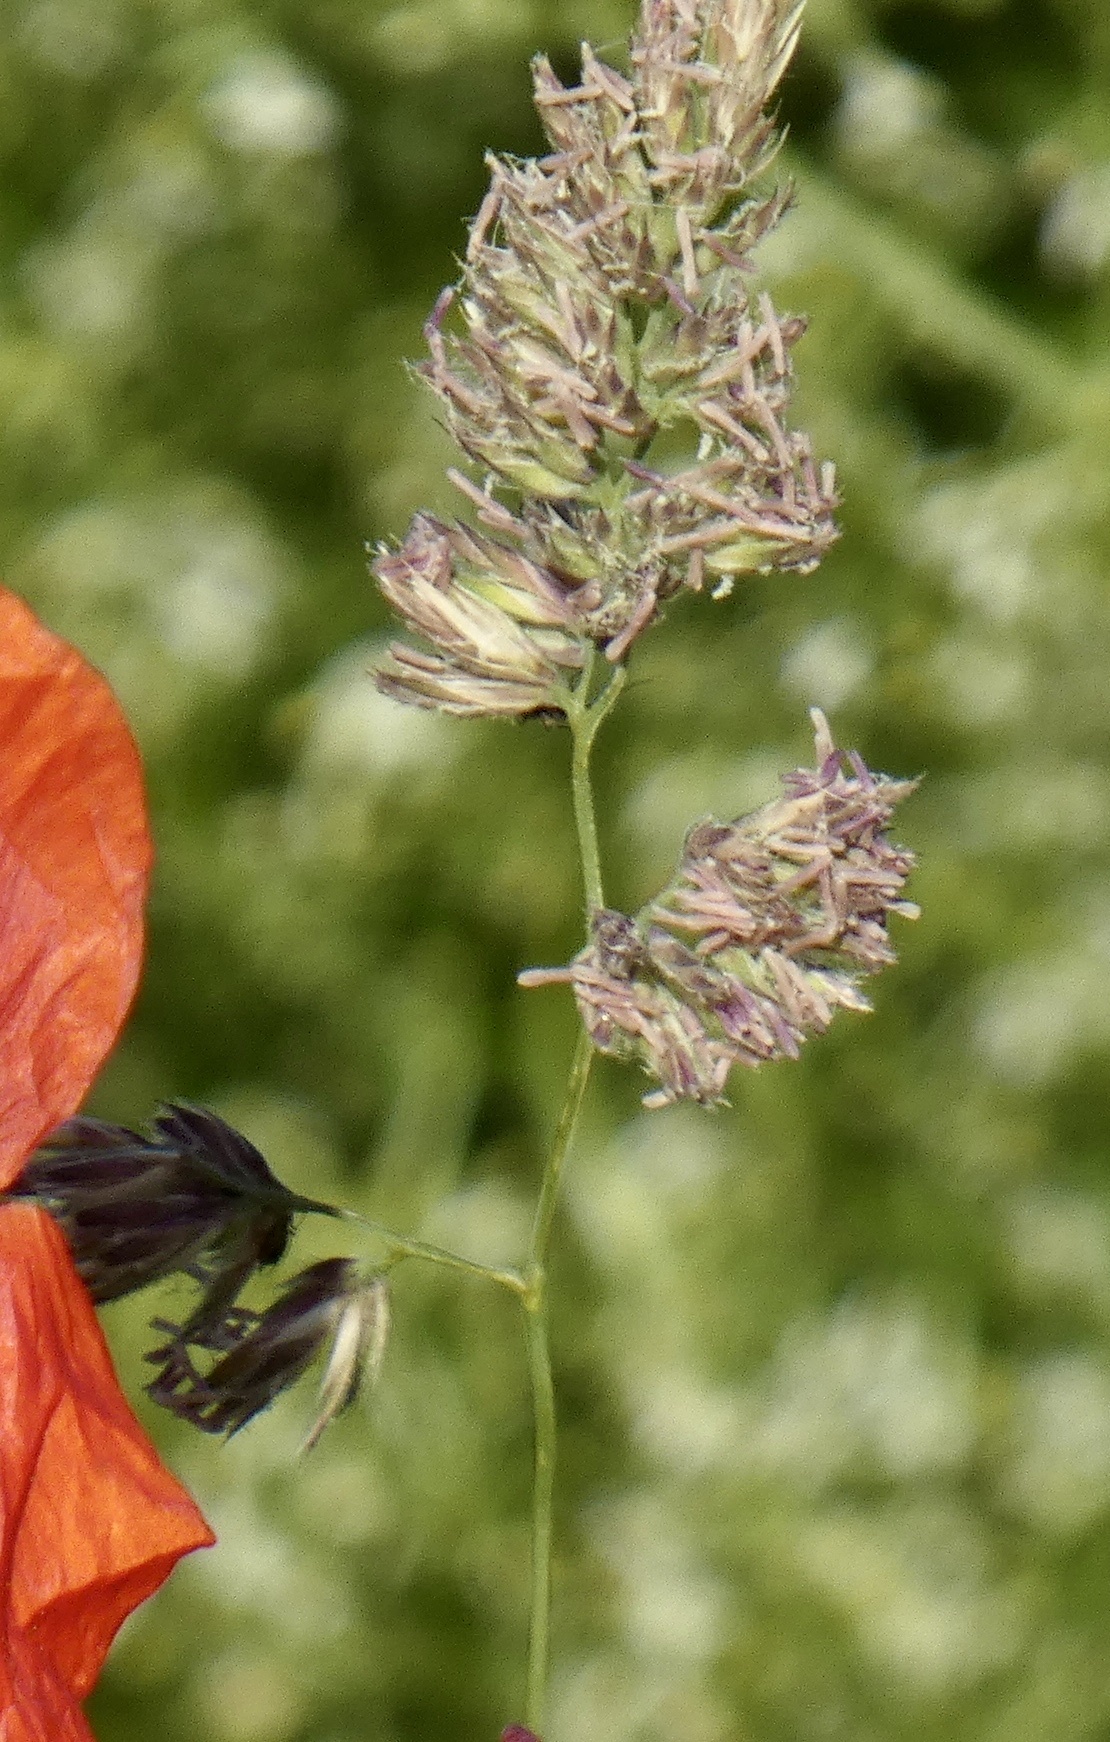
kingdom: Plantae
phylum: Tracheophyta
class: Liliopsida
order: Poales
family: Poaceae
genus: Dactylis
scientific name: Dactylis glomerata
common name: Orchardgrass
